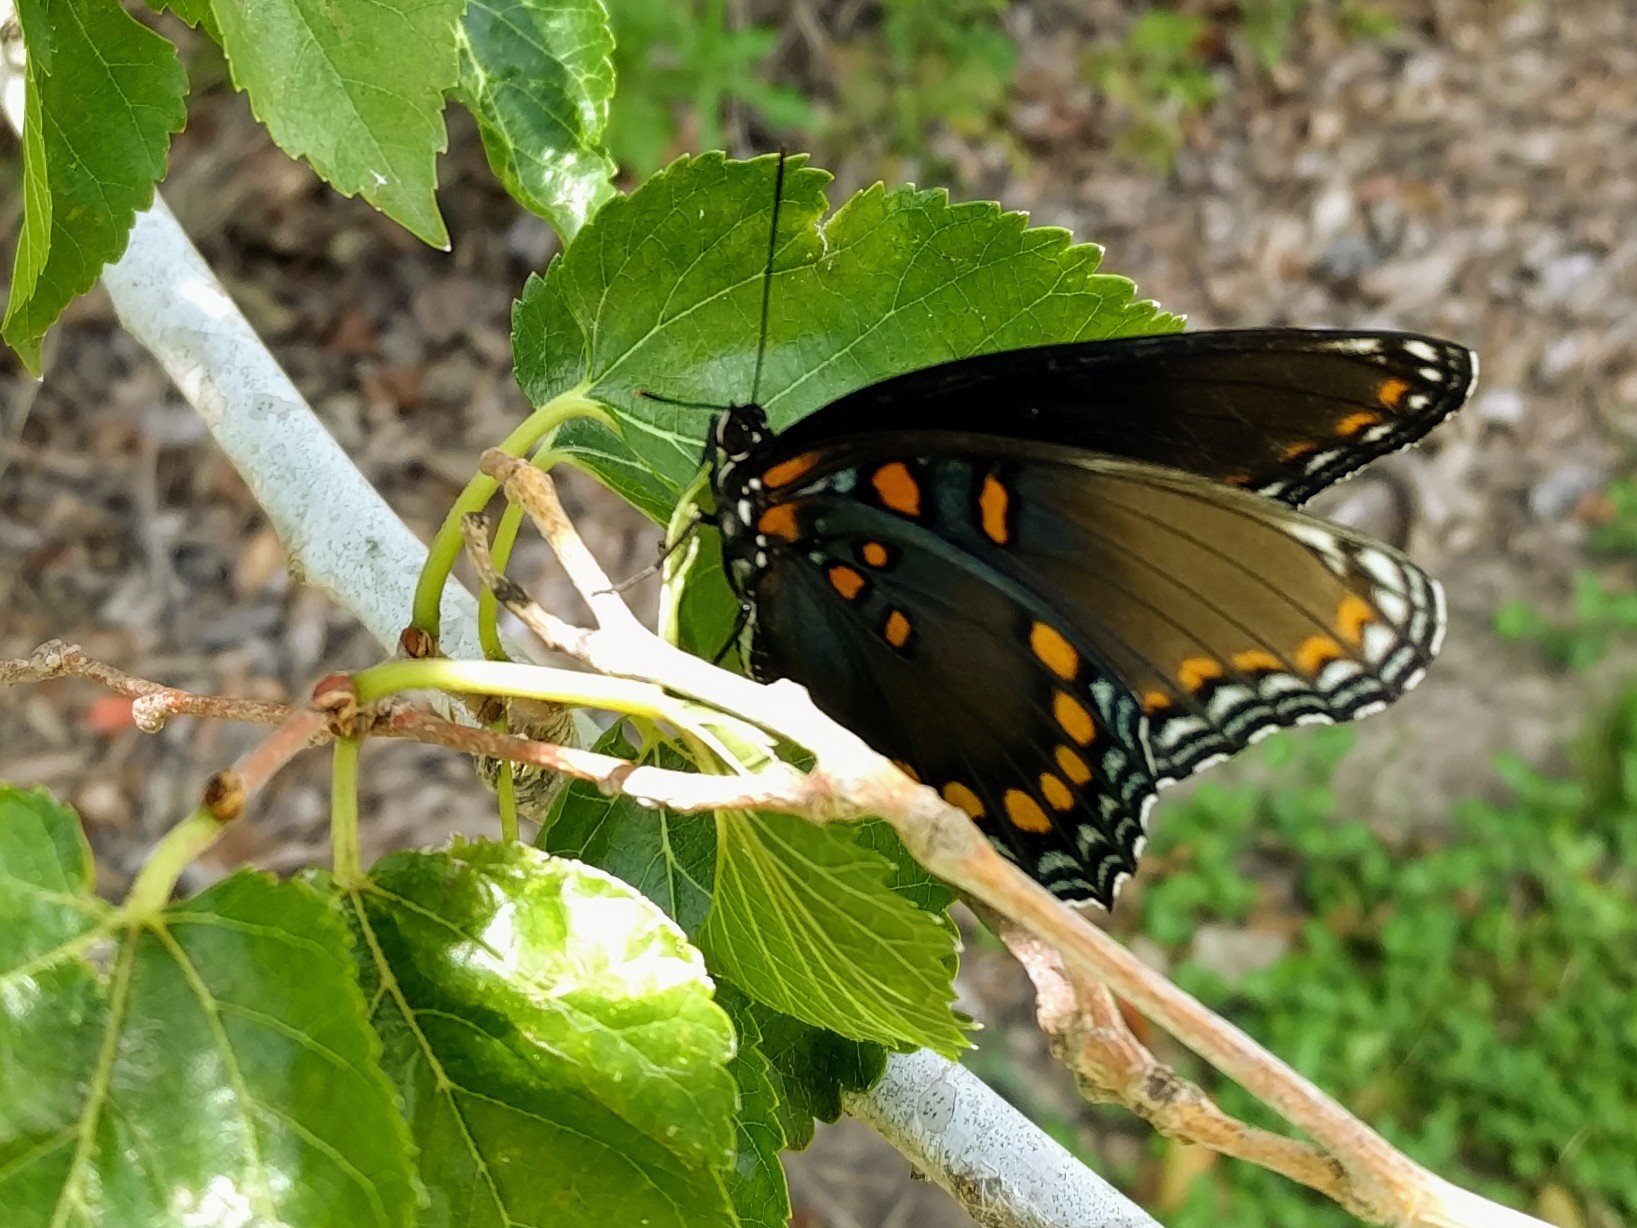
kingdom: Animalia
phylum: Arthropoda
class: Insecta
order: Lepidoptera
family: Nymphalidae
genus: Limenitis
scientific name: Limenitis astyanax
